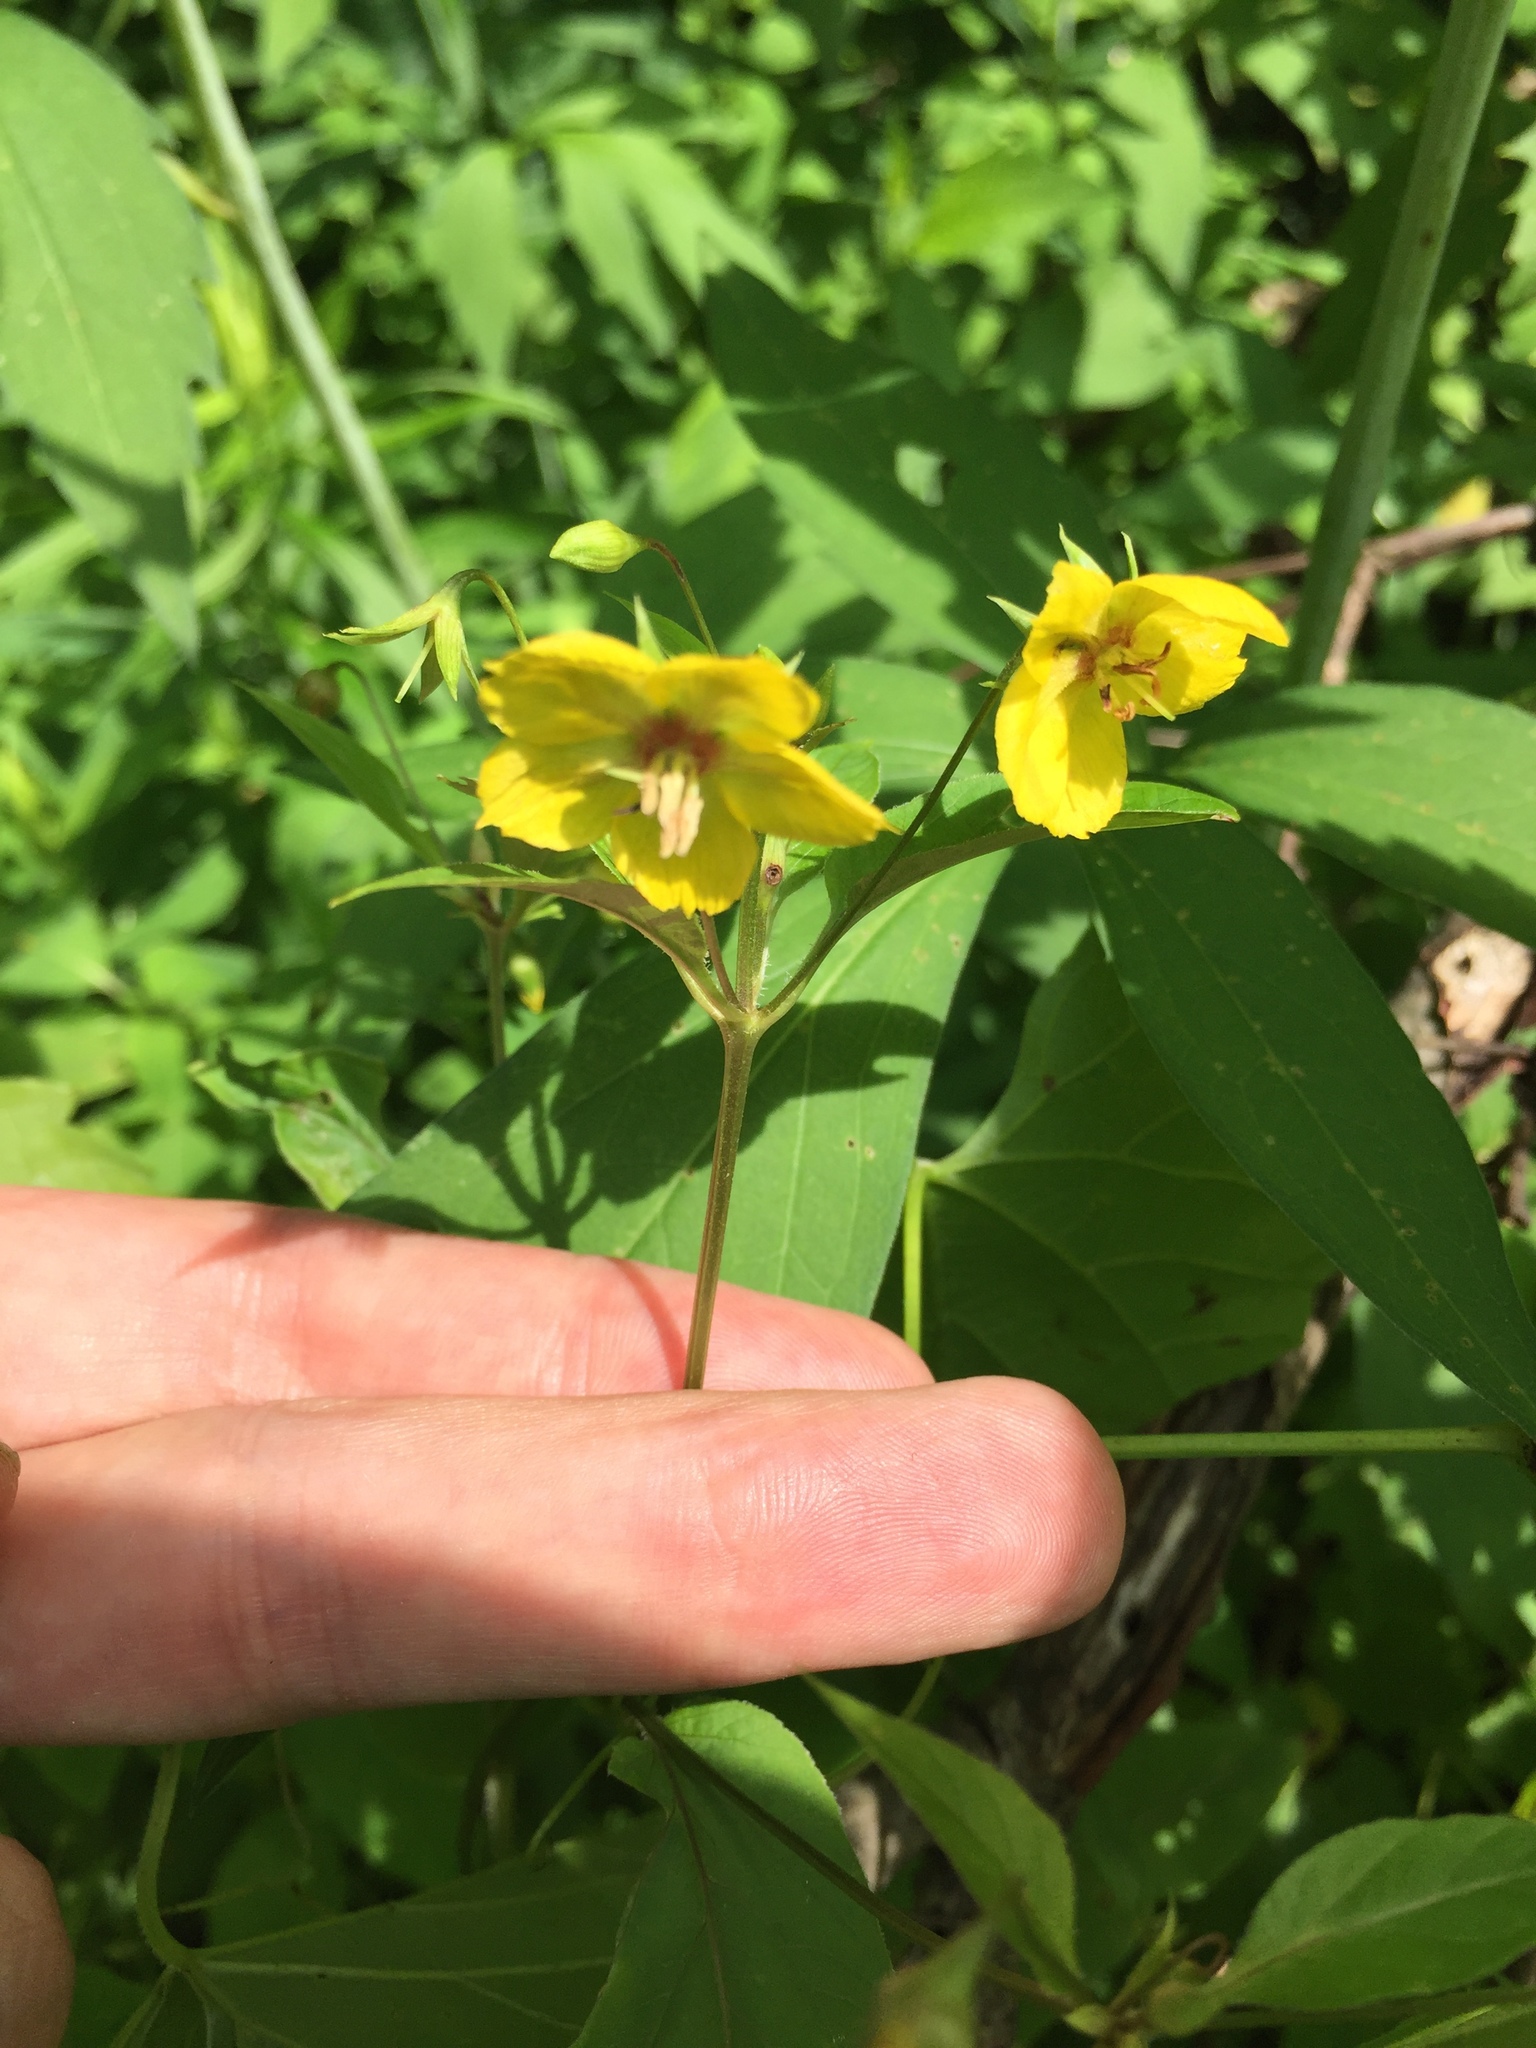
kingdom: Plantae
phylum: Tracheophyta
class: Magnoliopsida
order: Ericales
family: Primulaceae
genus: Lysimachia
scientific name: Lysimachia ciliata
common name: Fringed loosestrife
